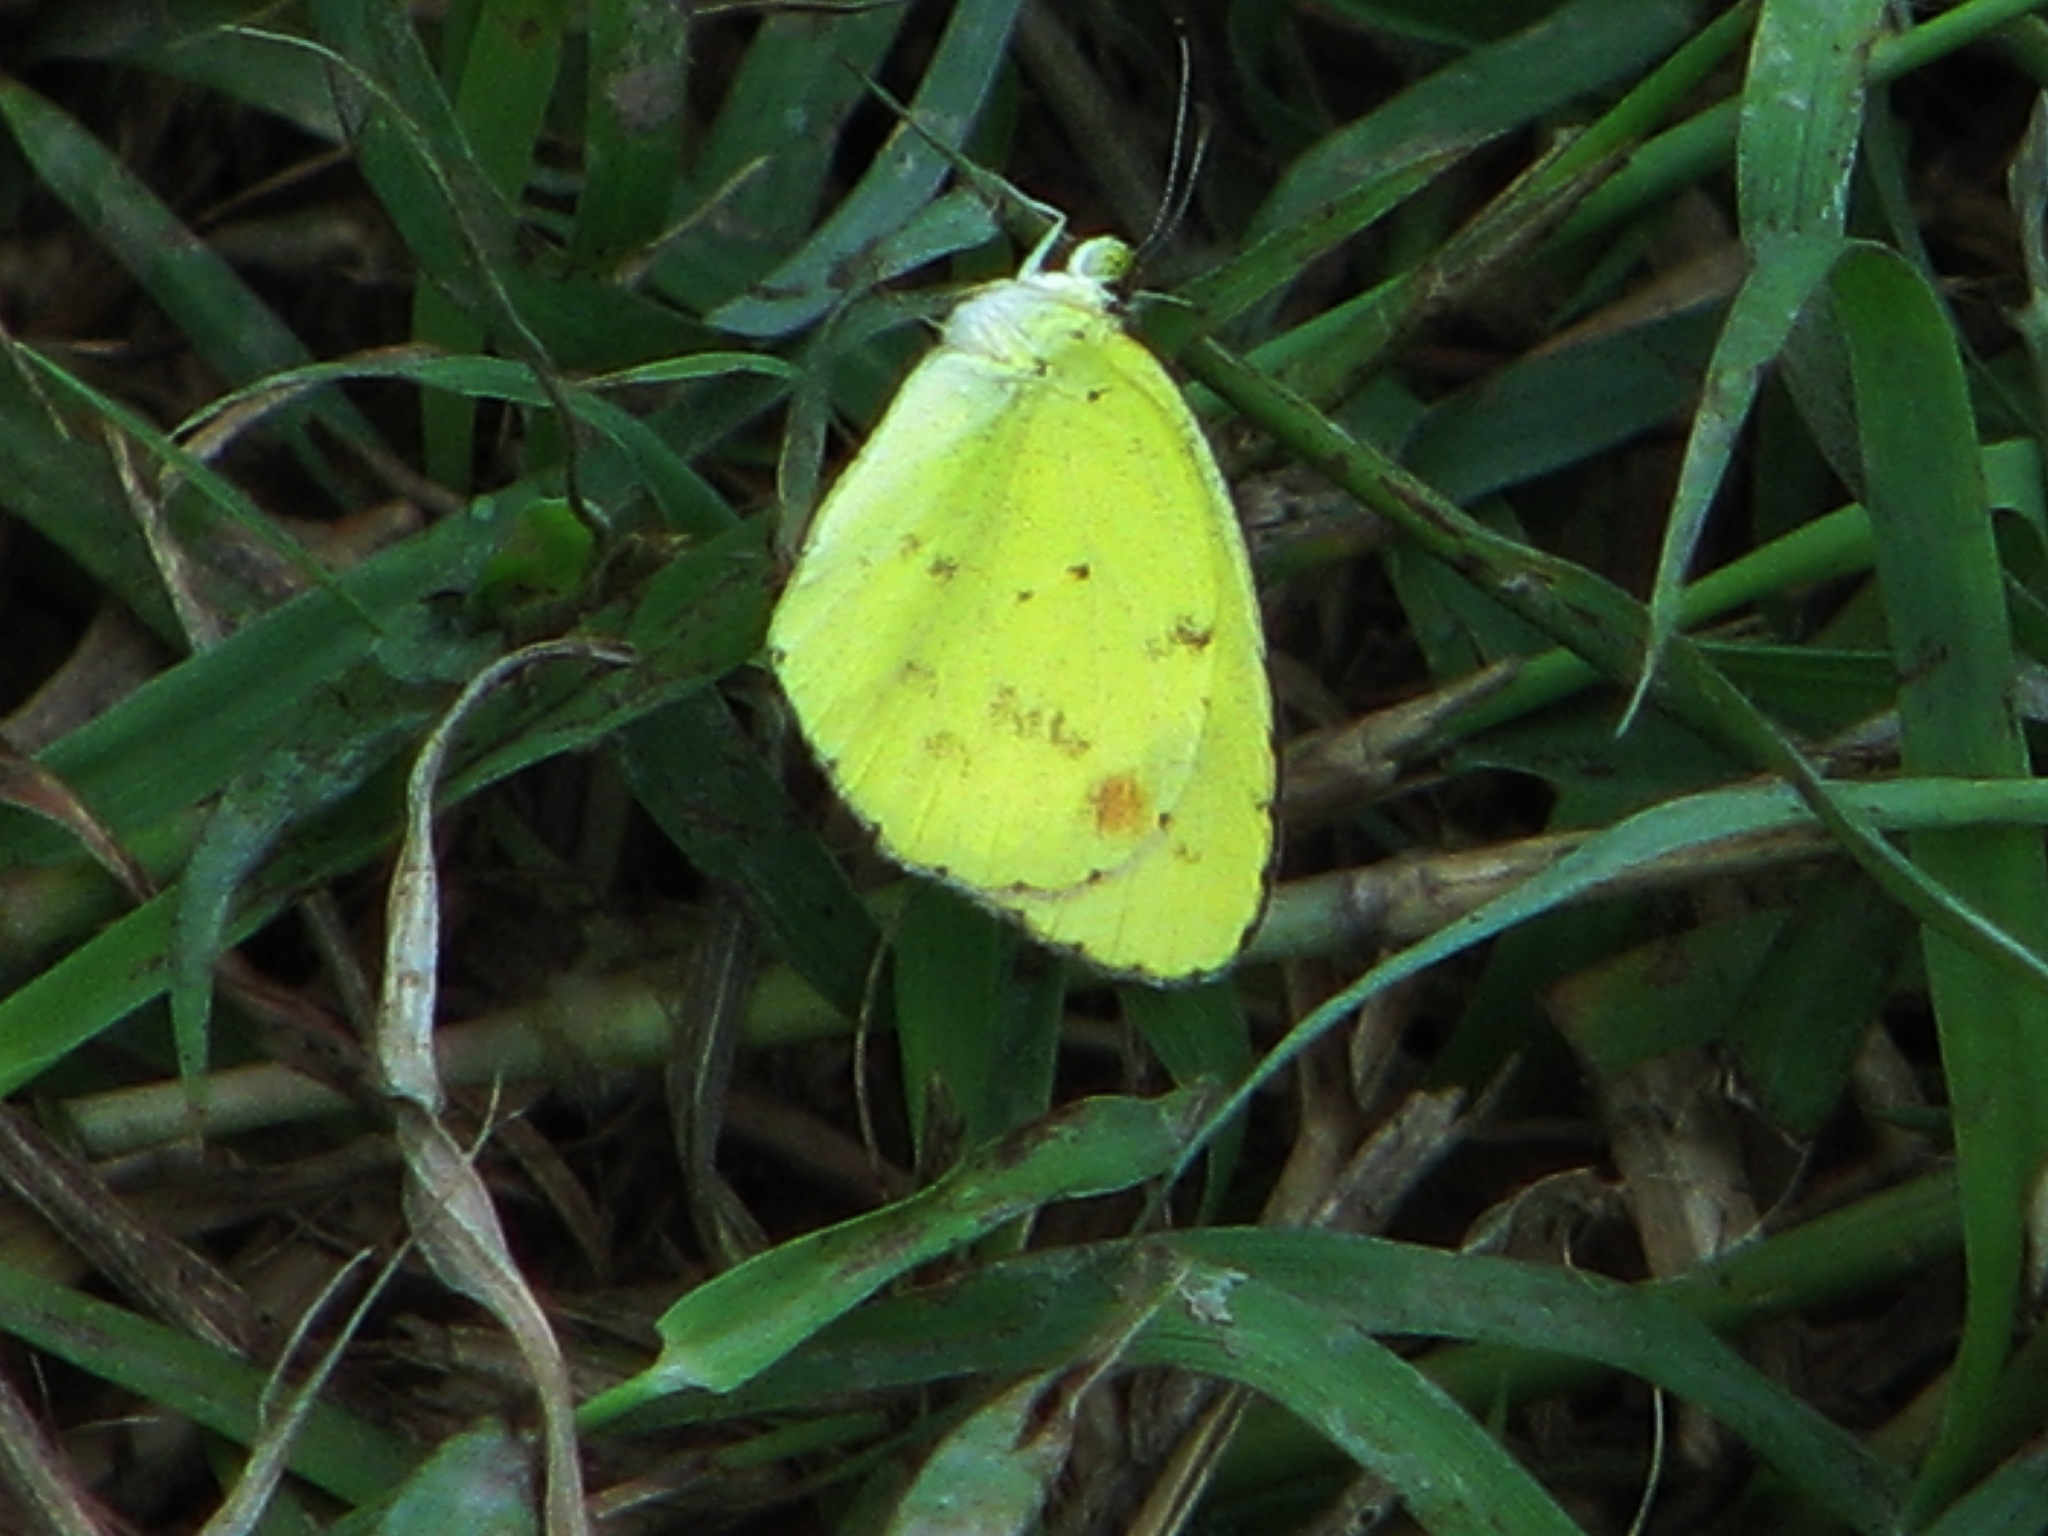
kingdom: Animalia
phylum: Arthropoda
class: Insecta
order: Lepidoptera
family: Pieridae
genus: Pyrisitia
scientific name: Pyrisitia lisa
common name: Little yellow
